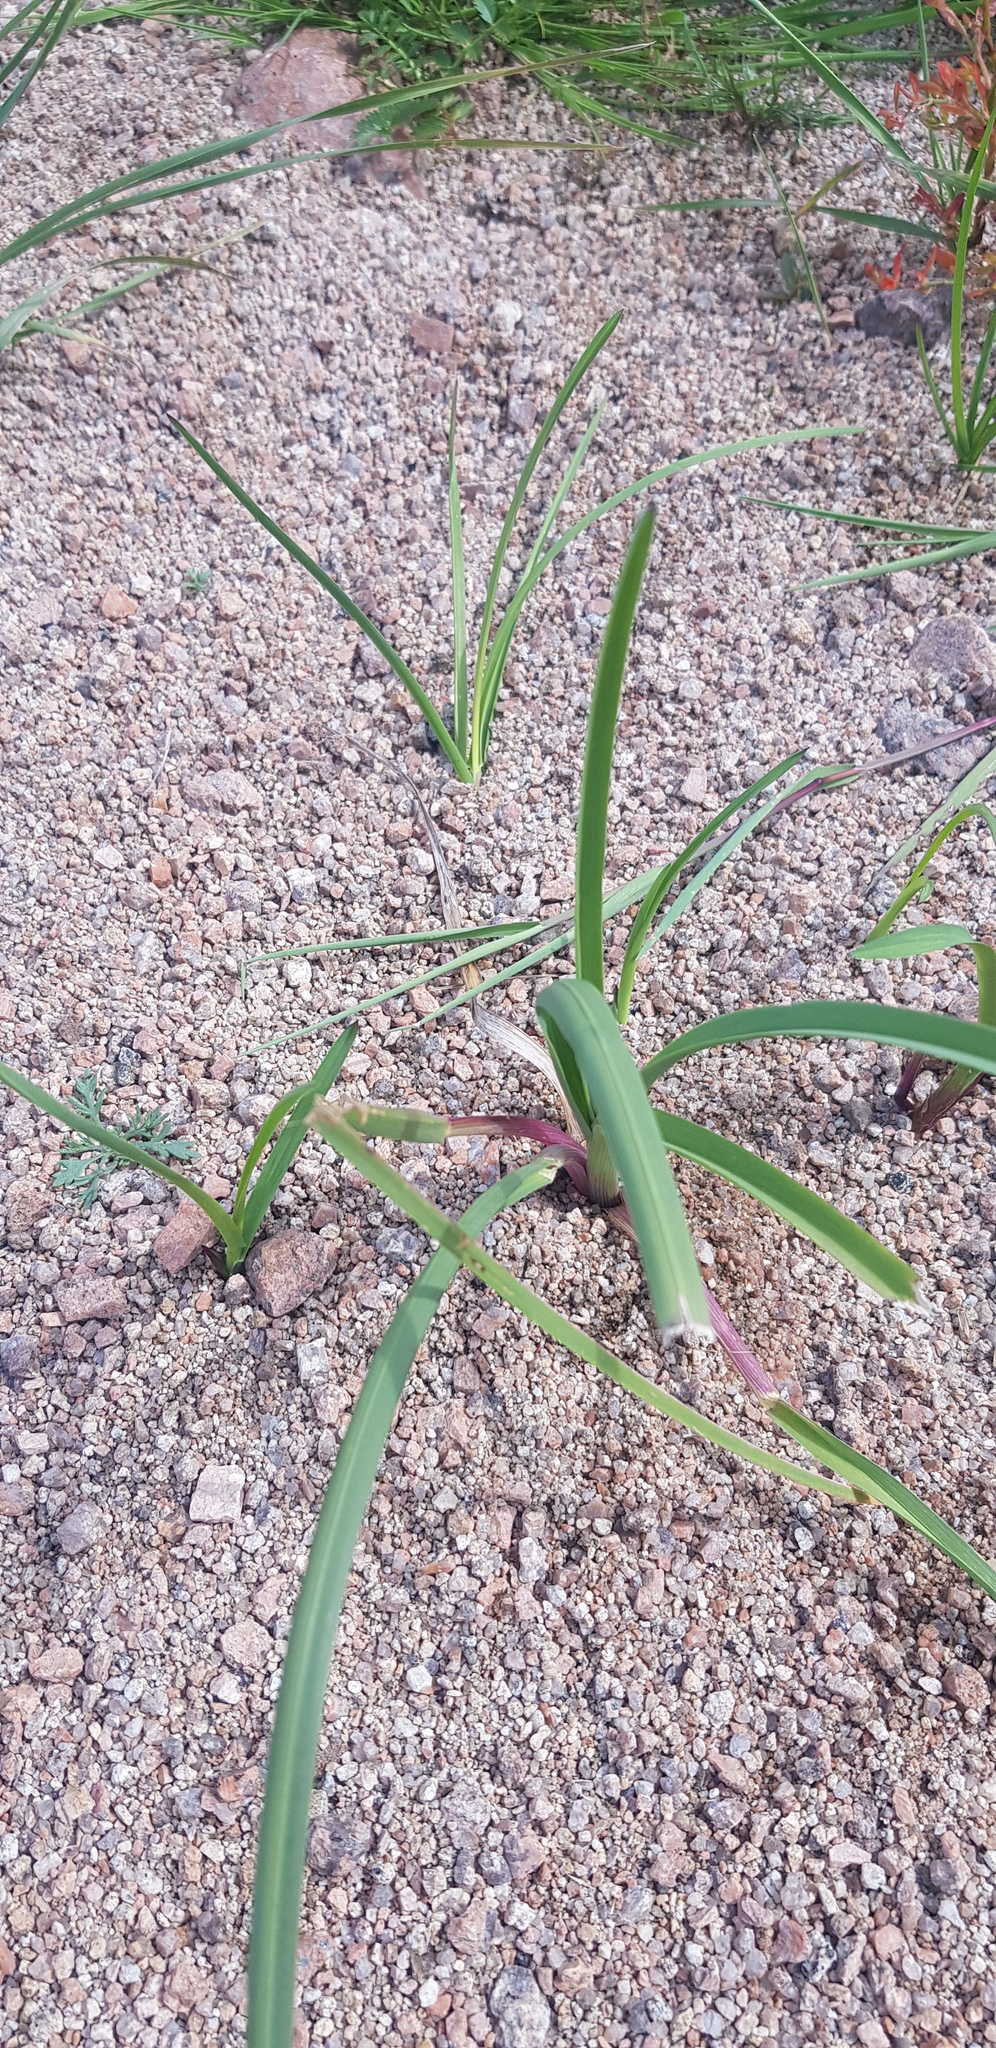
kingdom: Plantae
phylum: Tracheophyta
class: Liliopsida
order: Poales
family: Poaceae
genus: Elymus
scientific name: Elymus repens
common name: Quackgrass
